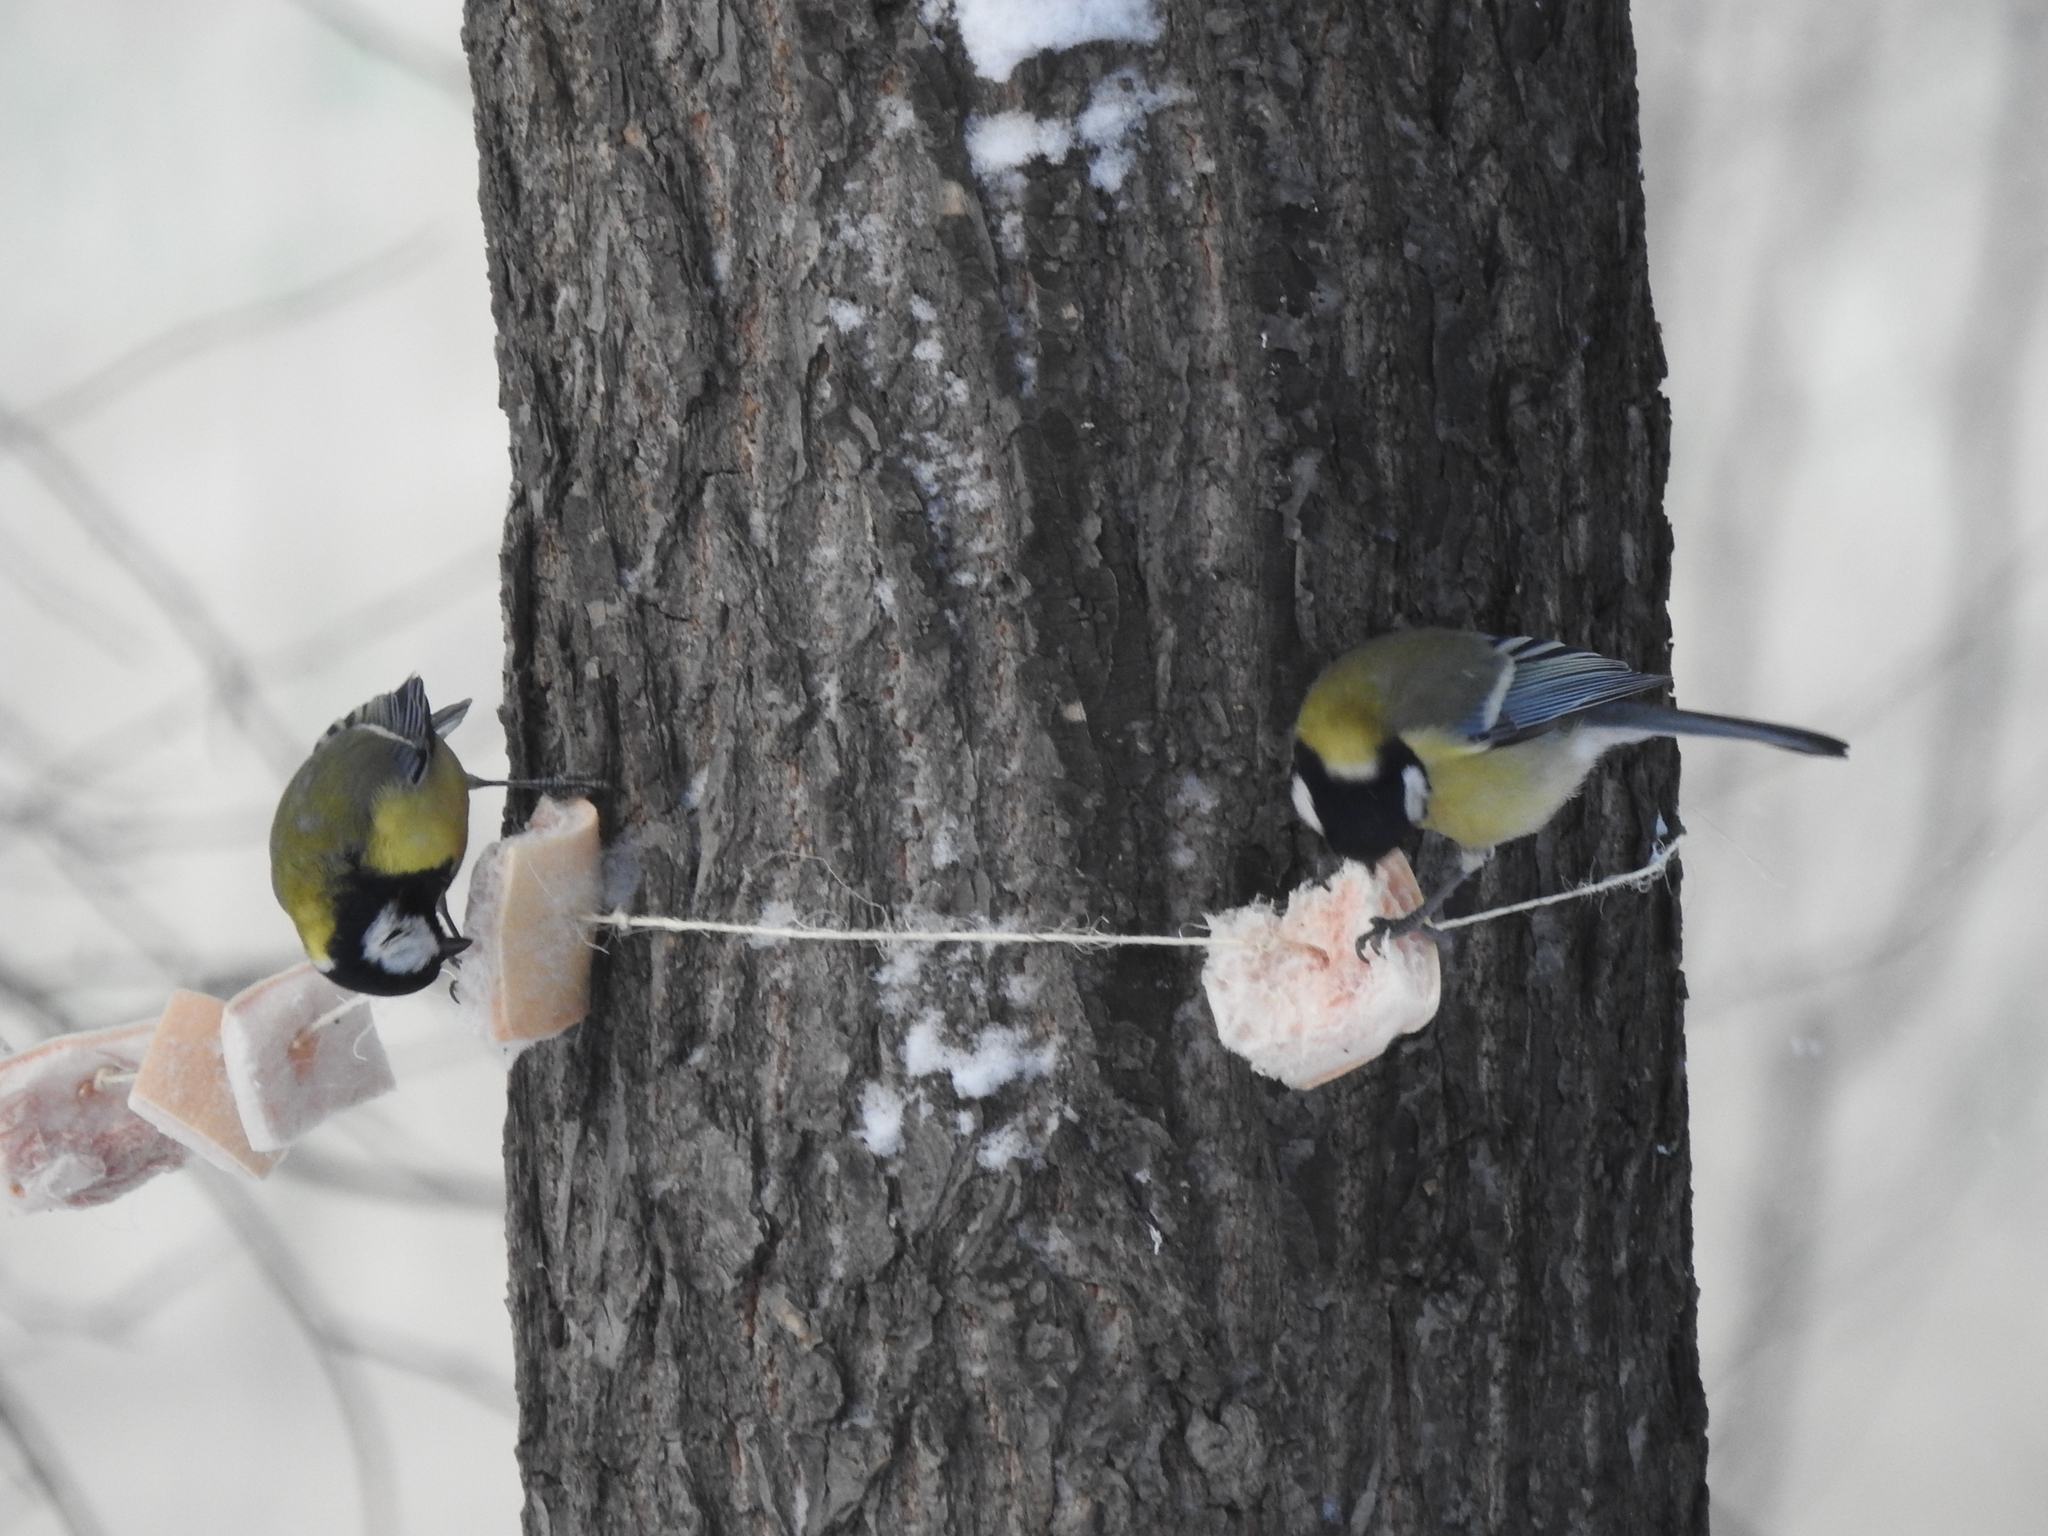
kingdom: Animalia
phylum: Chordata
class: Aves
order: Passeriformes
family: Paridae
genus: Parus
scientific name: Parus major
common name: Great tit
